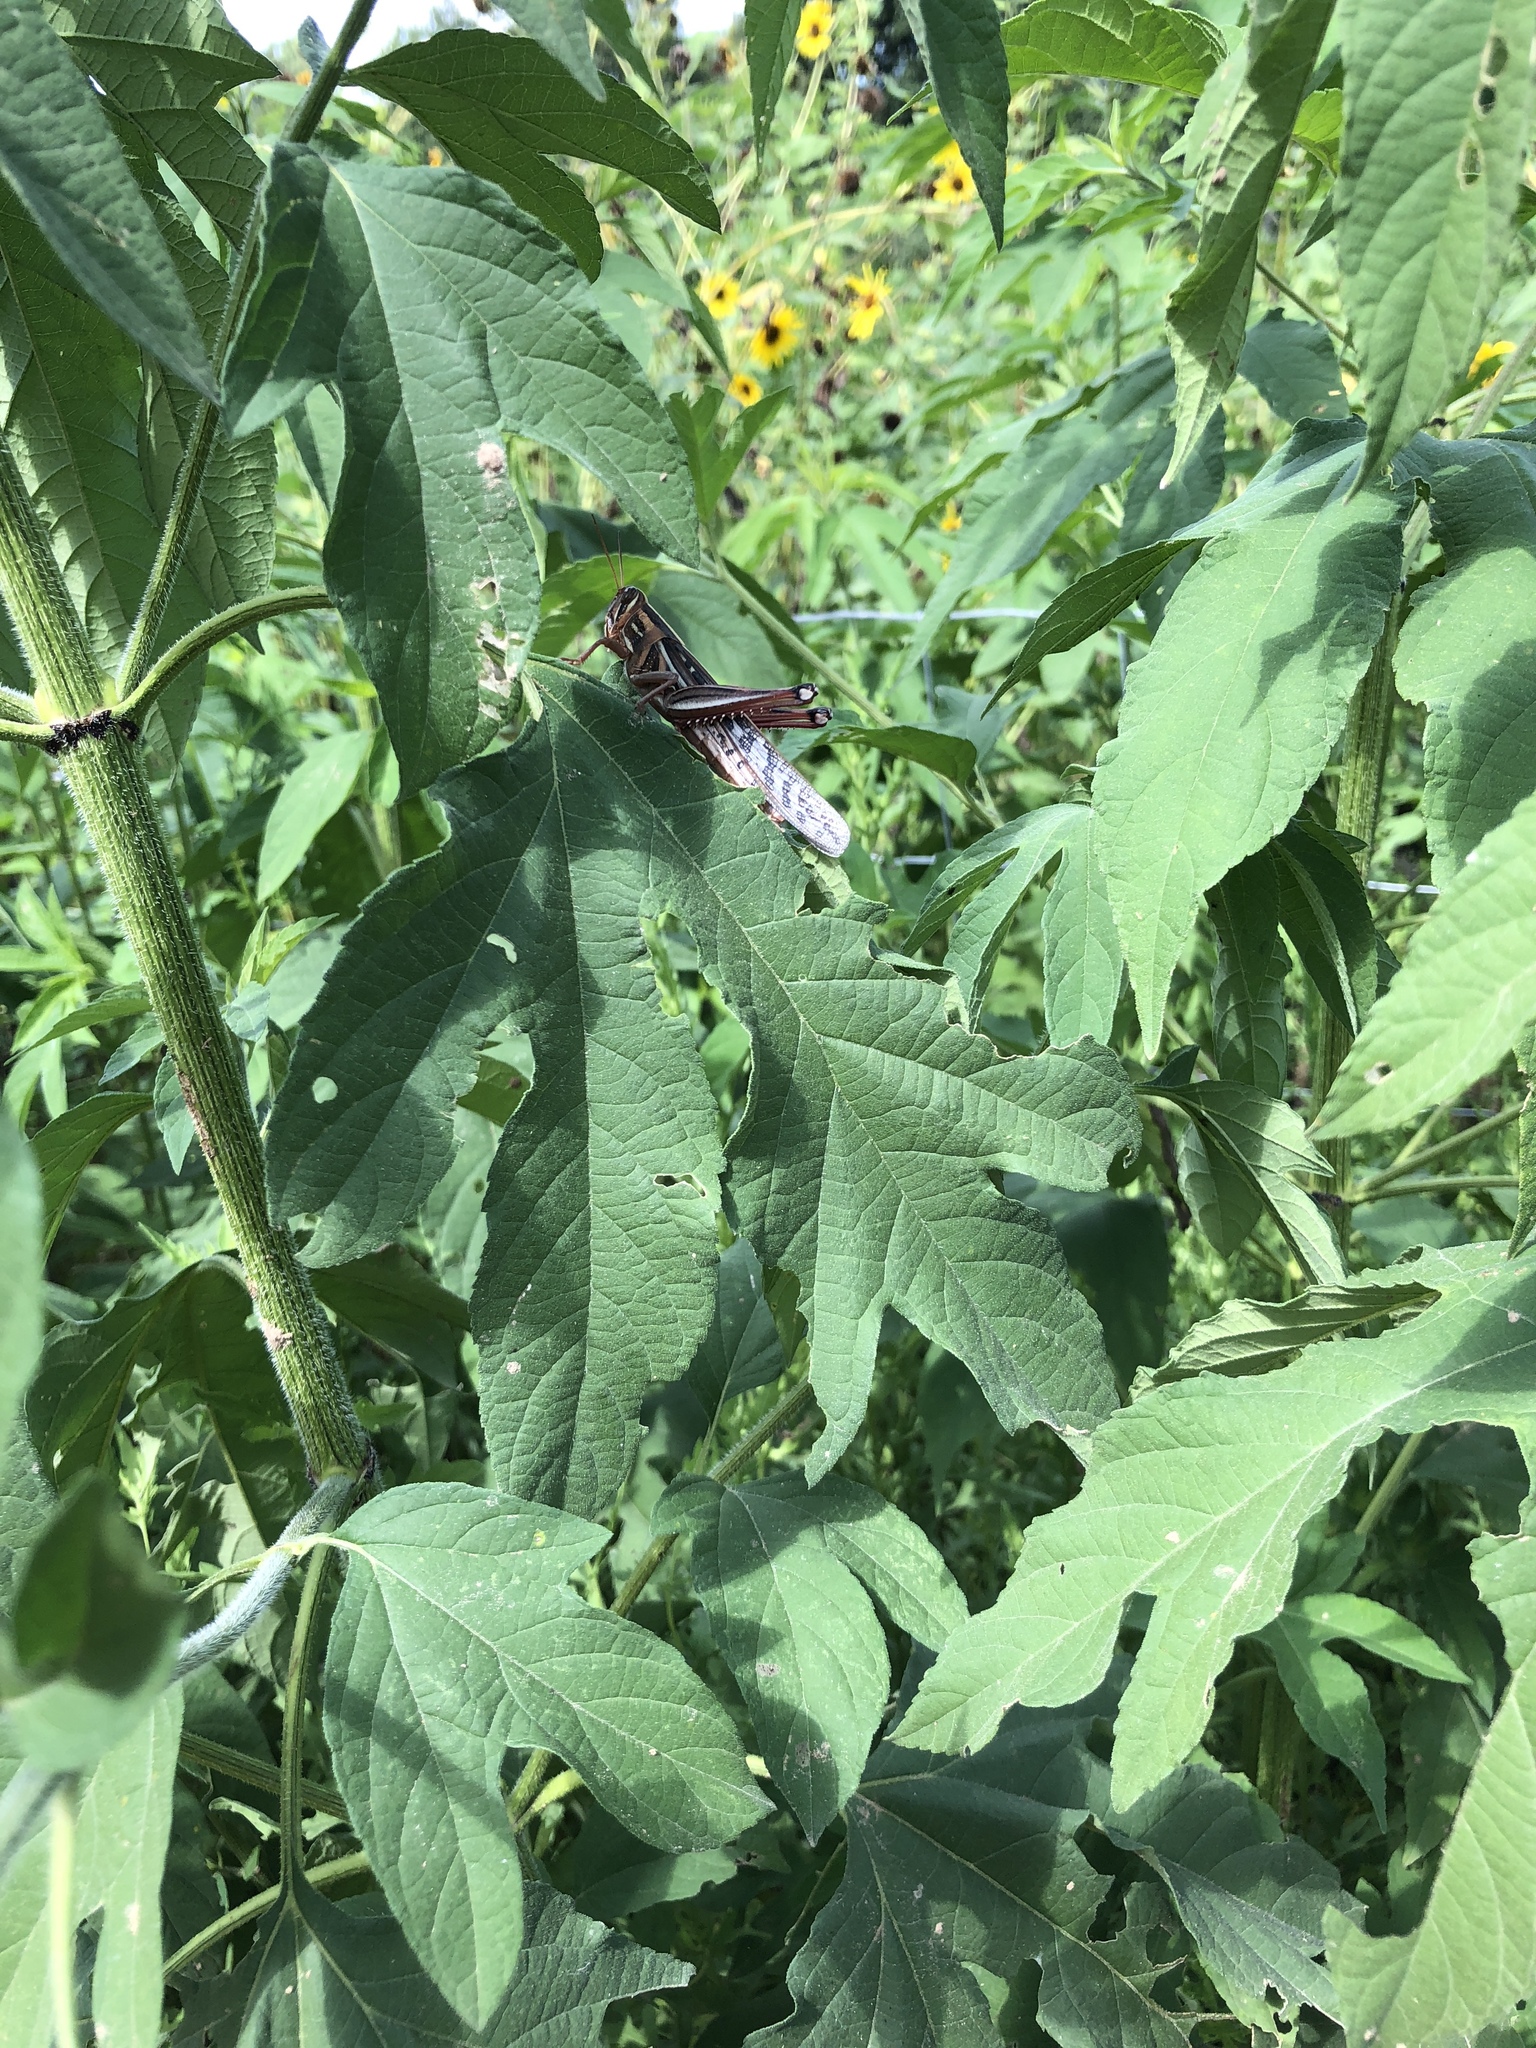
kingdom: Animalia
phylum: Arthropoda
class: Insecta
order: Orthoptera
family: Acrididae
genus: Schistocerca
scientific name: Schistocerca americana
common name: American bird locust
